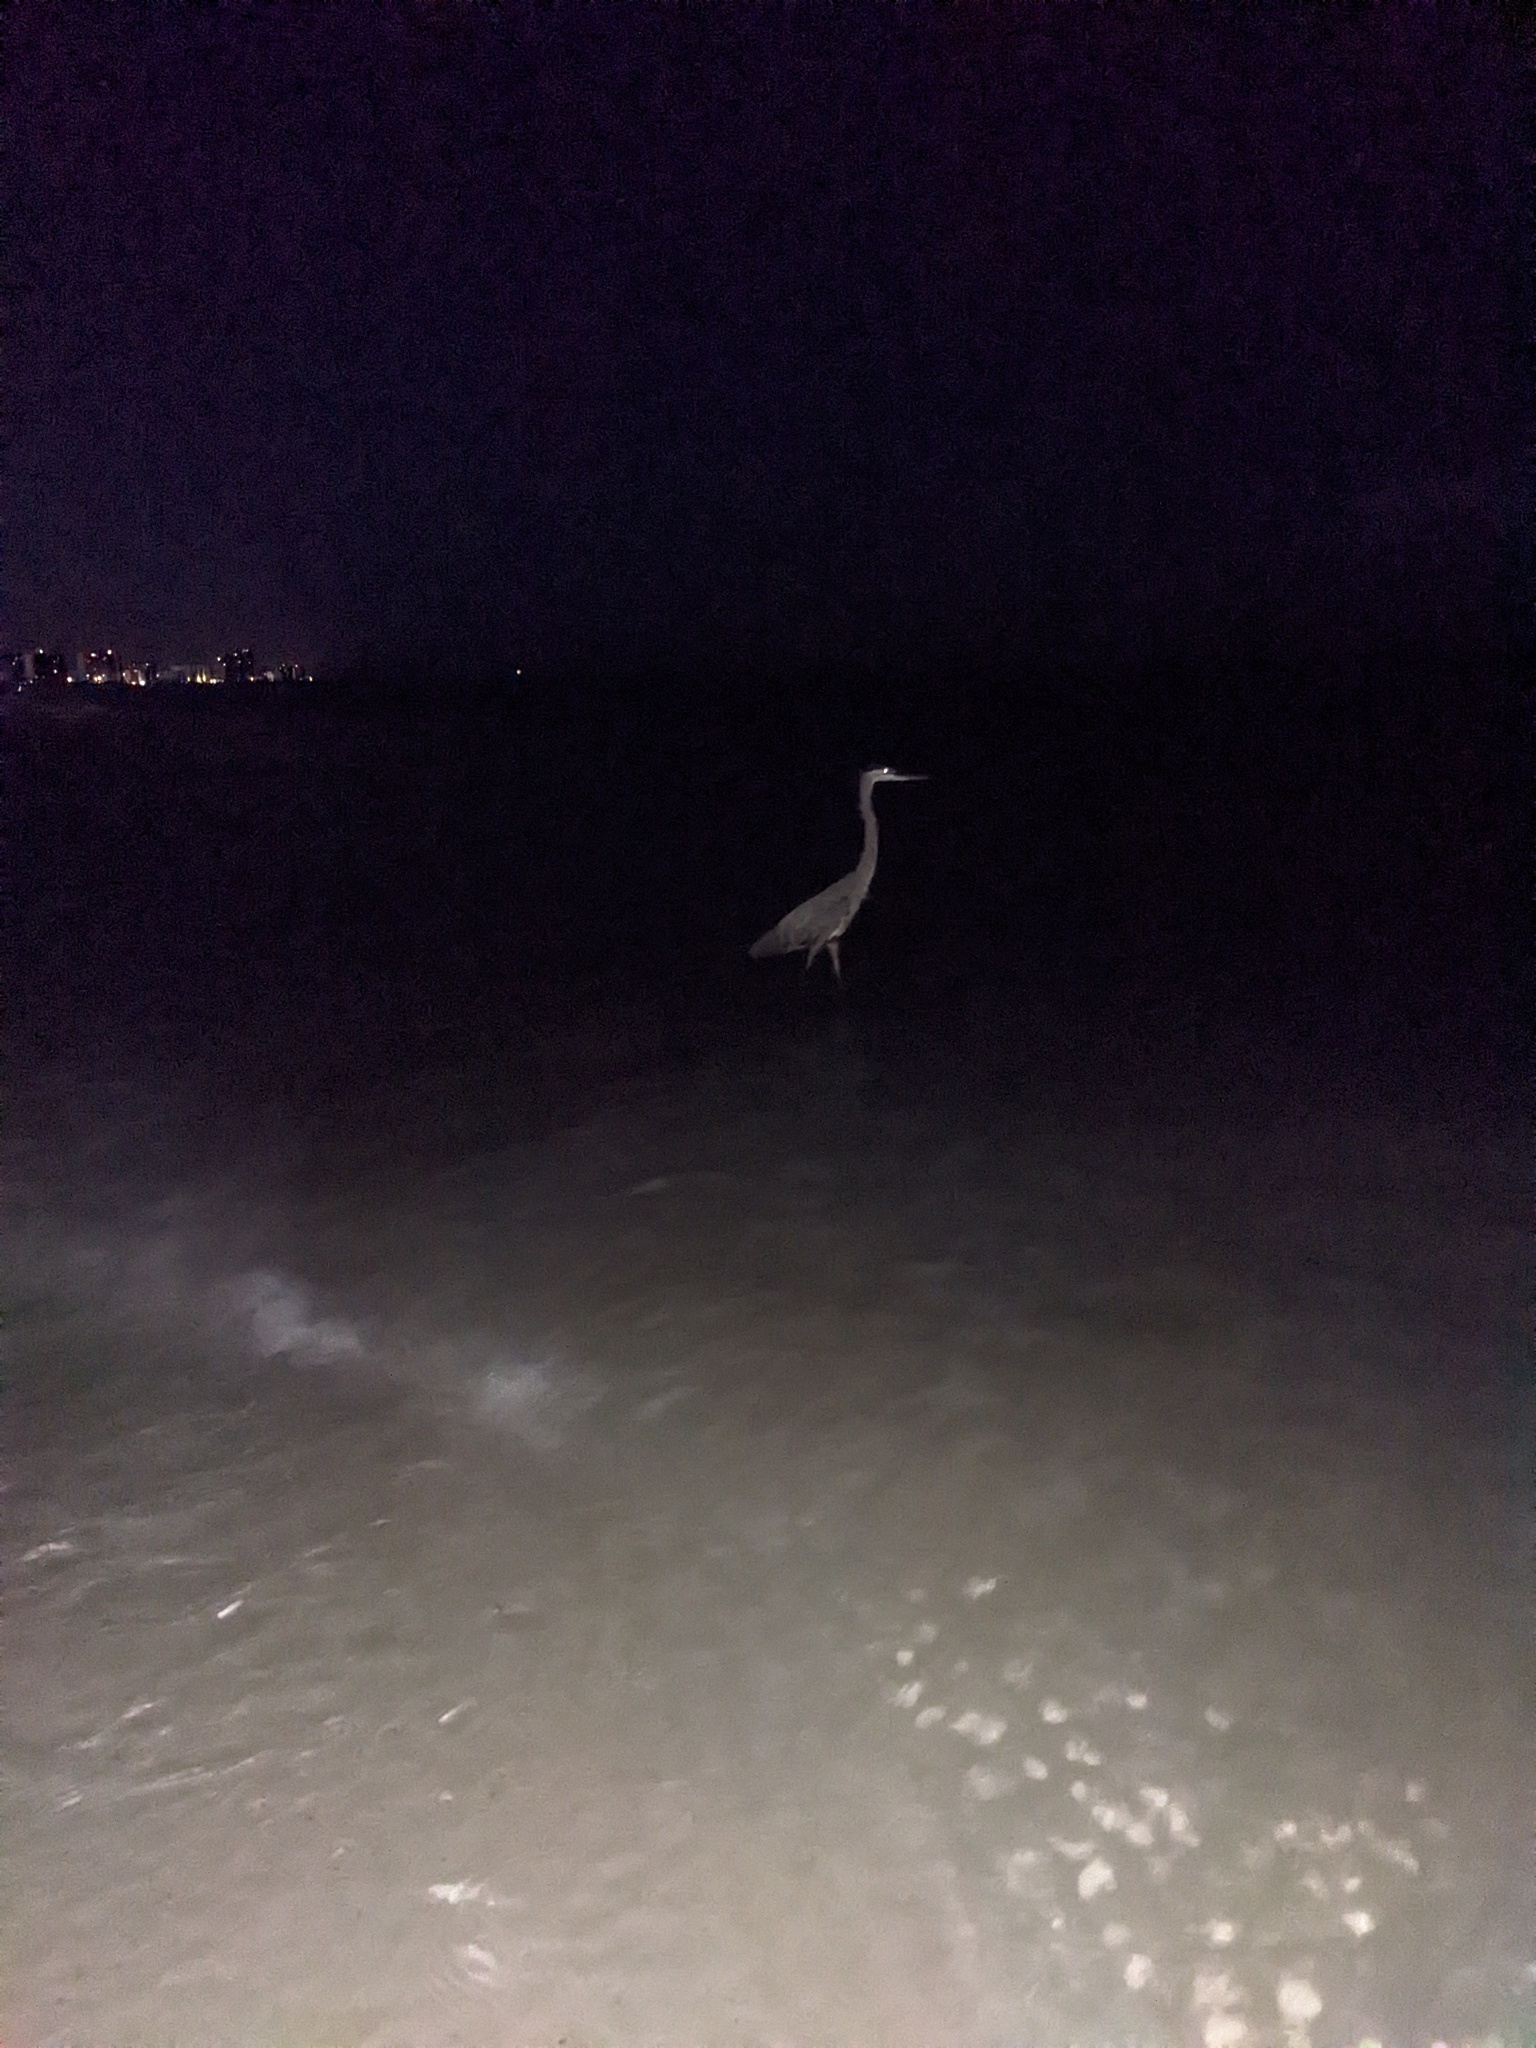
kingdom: Animalia
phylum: Chordata
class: Aves
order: Pelecaniformes
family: Ardeidae
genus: Ardea
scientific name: Ardea herodias
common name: Great blue heron
